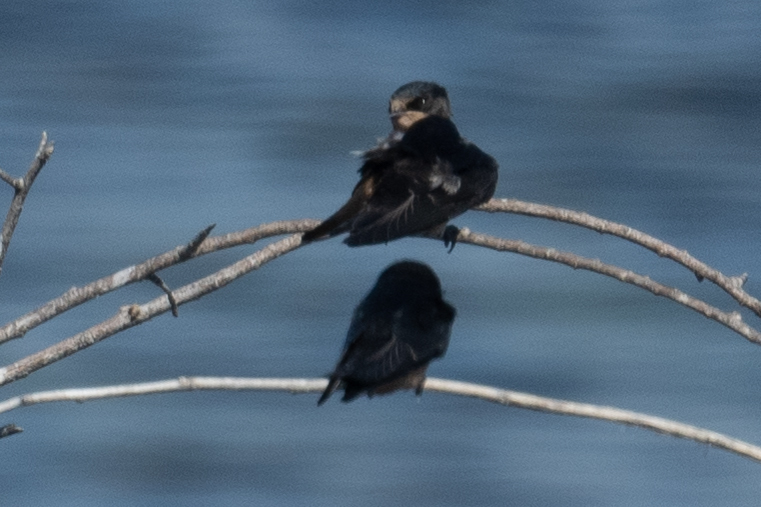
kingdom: Animalia
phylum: Chordata
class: Aves
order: Passeriformes
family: Hirundinidae
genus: Hirundo
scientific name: Hirundo rustica
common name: Barn swallow
